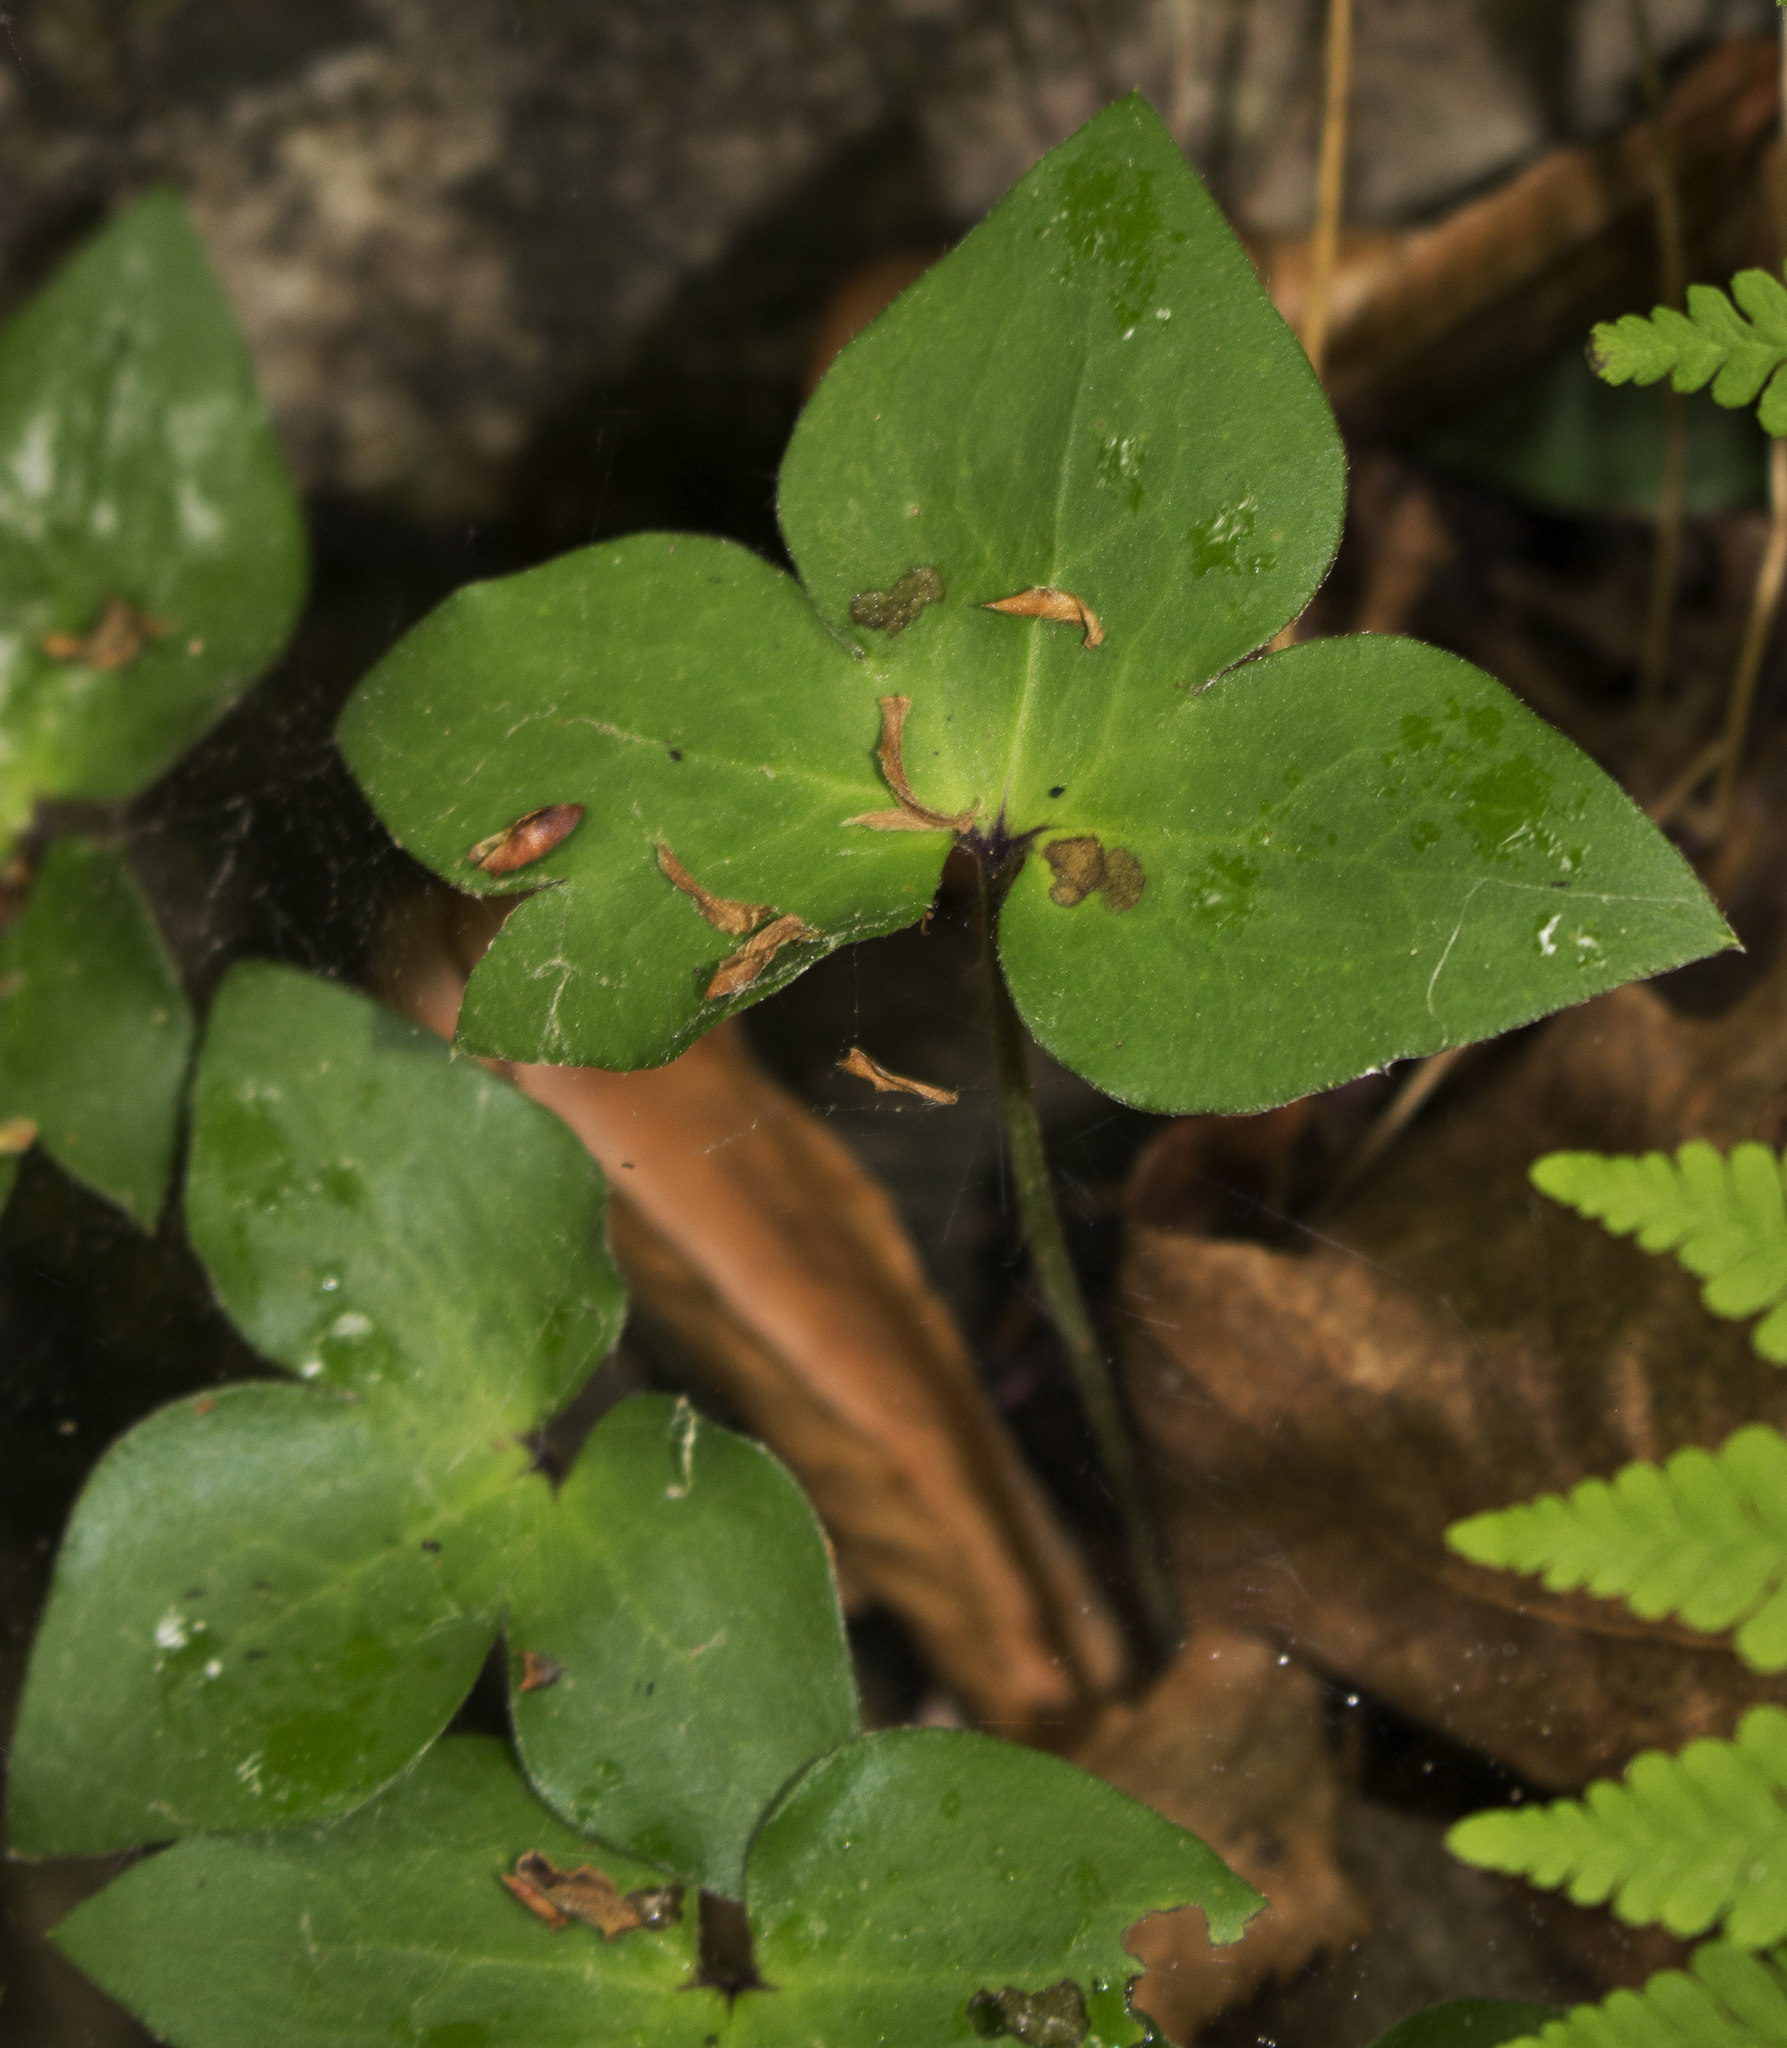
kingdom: Plantae
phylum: Tracheophyta
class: Magnoliopsida
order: Ranunculales
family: Ranunculaceae
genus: Hepatica
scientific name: Hepatica acutiloba
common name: Sharp-lobed hepatica
